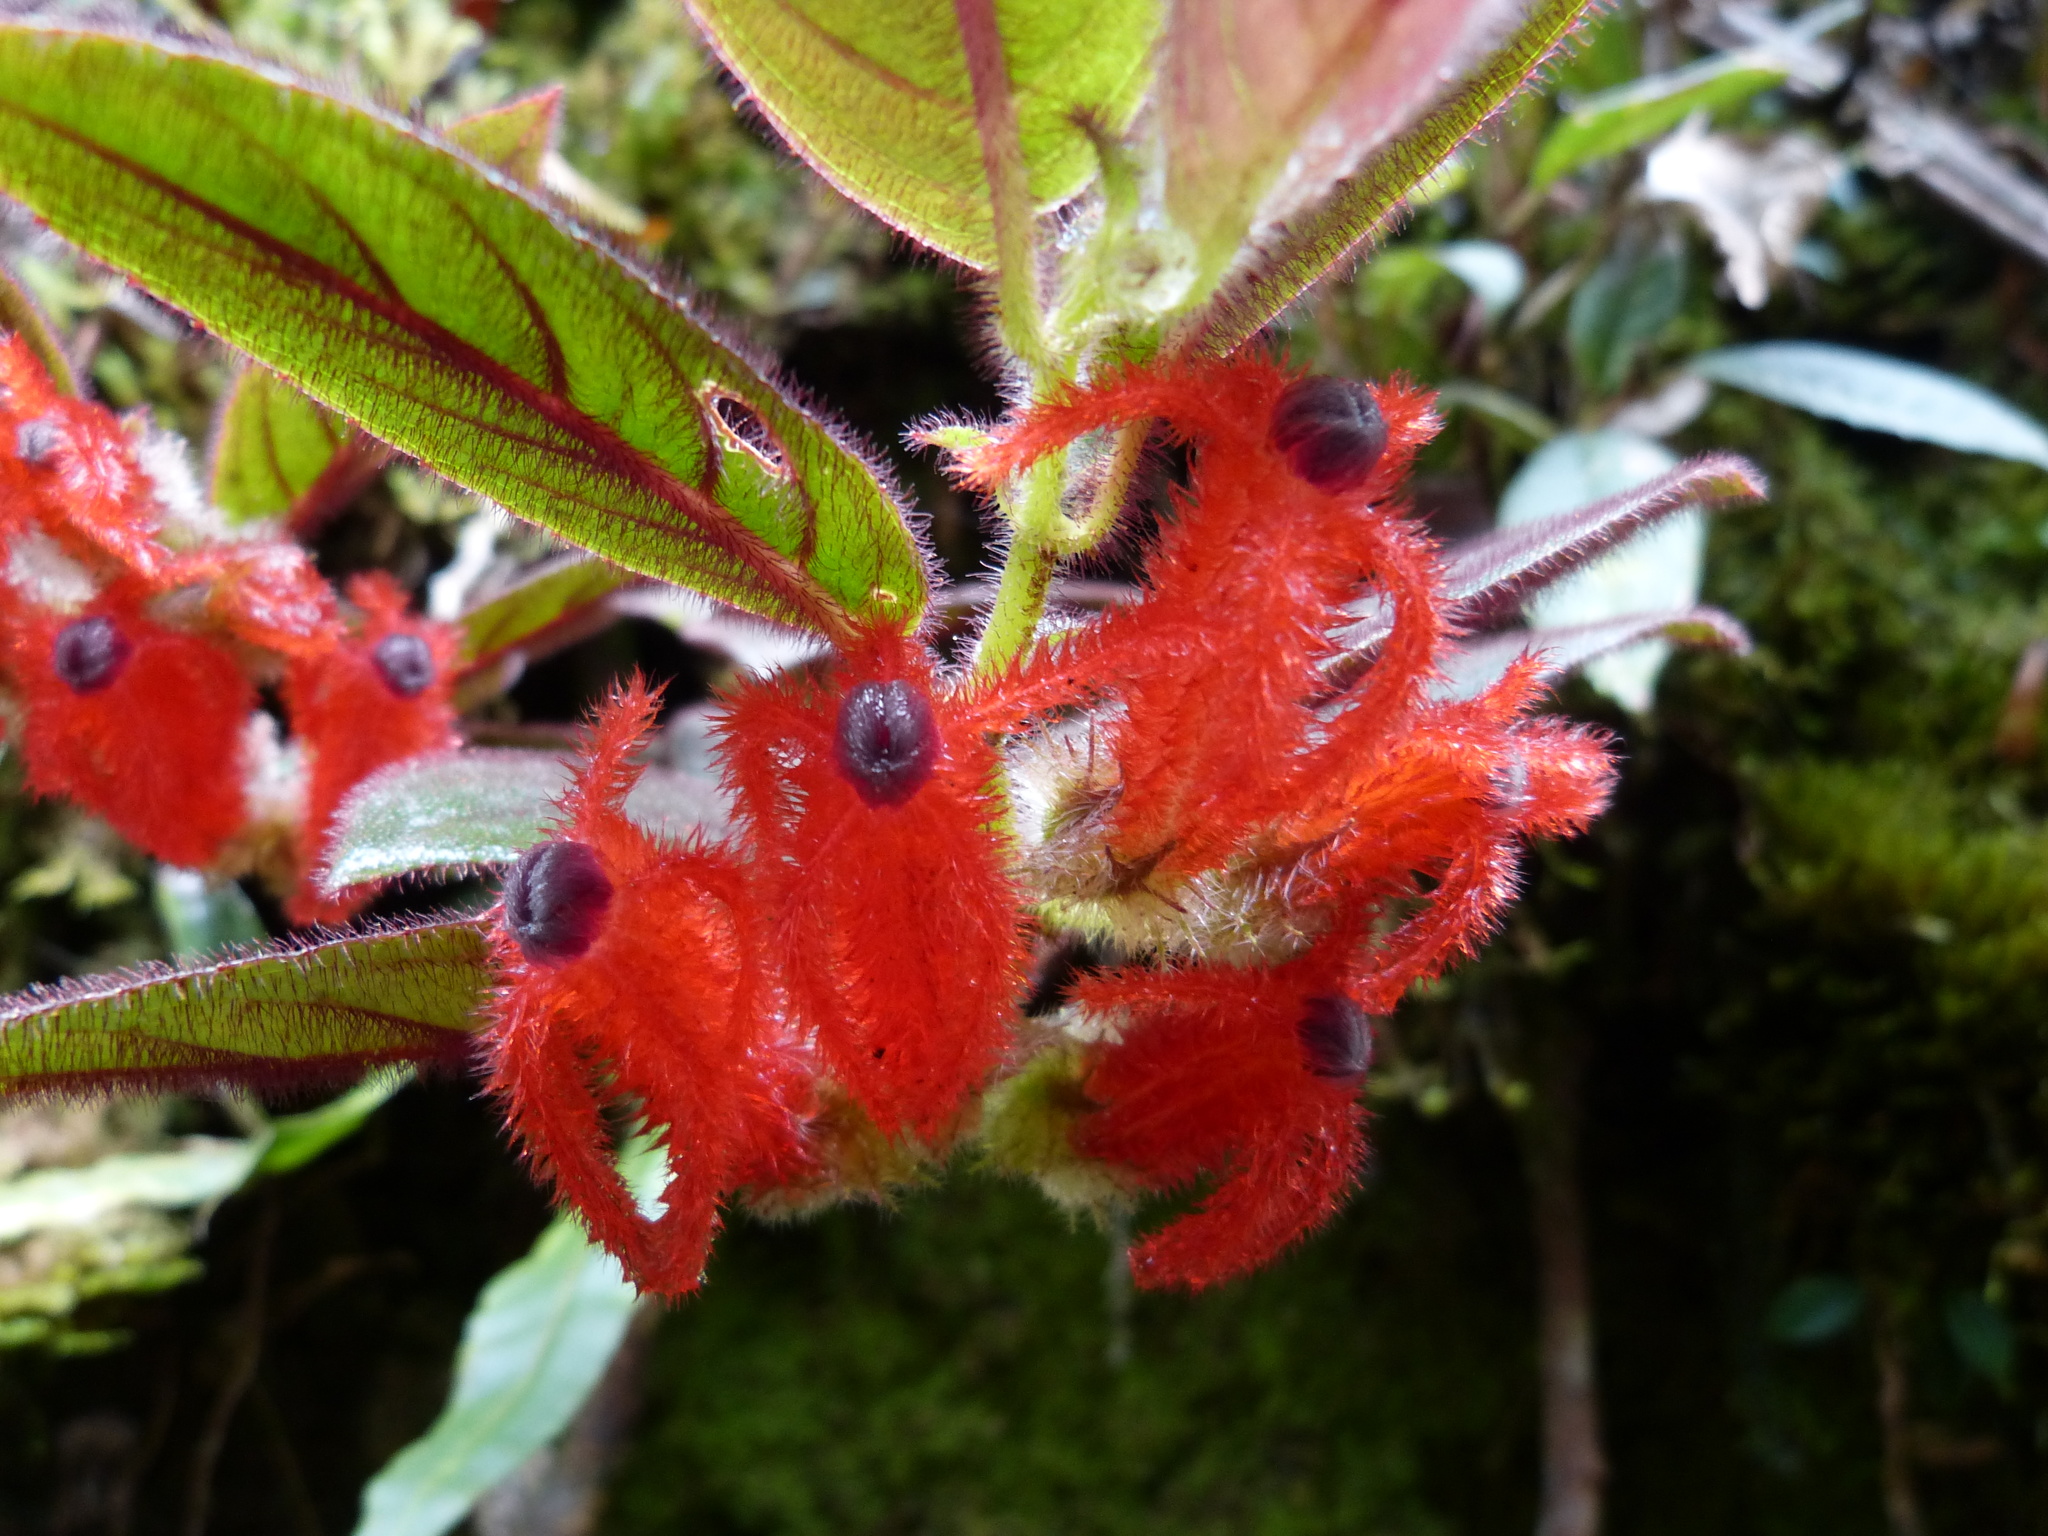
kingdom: Plantae
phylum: Tracheophyta
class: Magnoliopsida
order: Lamiales
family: Gesneriaceae
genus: Columnea
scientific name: Columnea rosea
